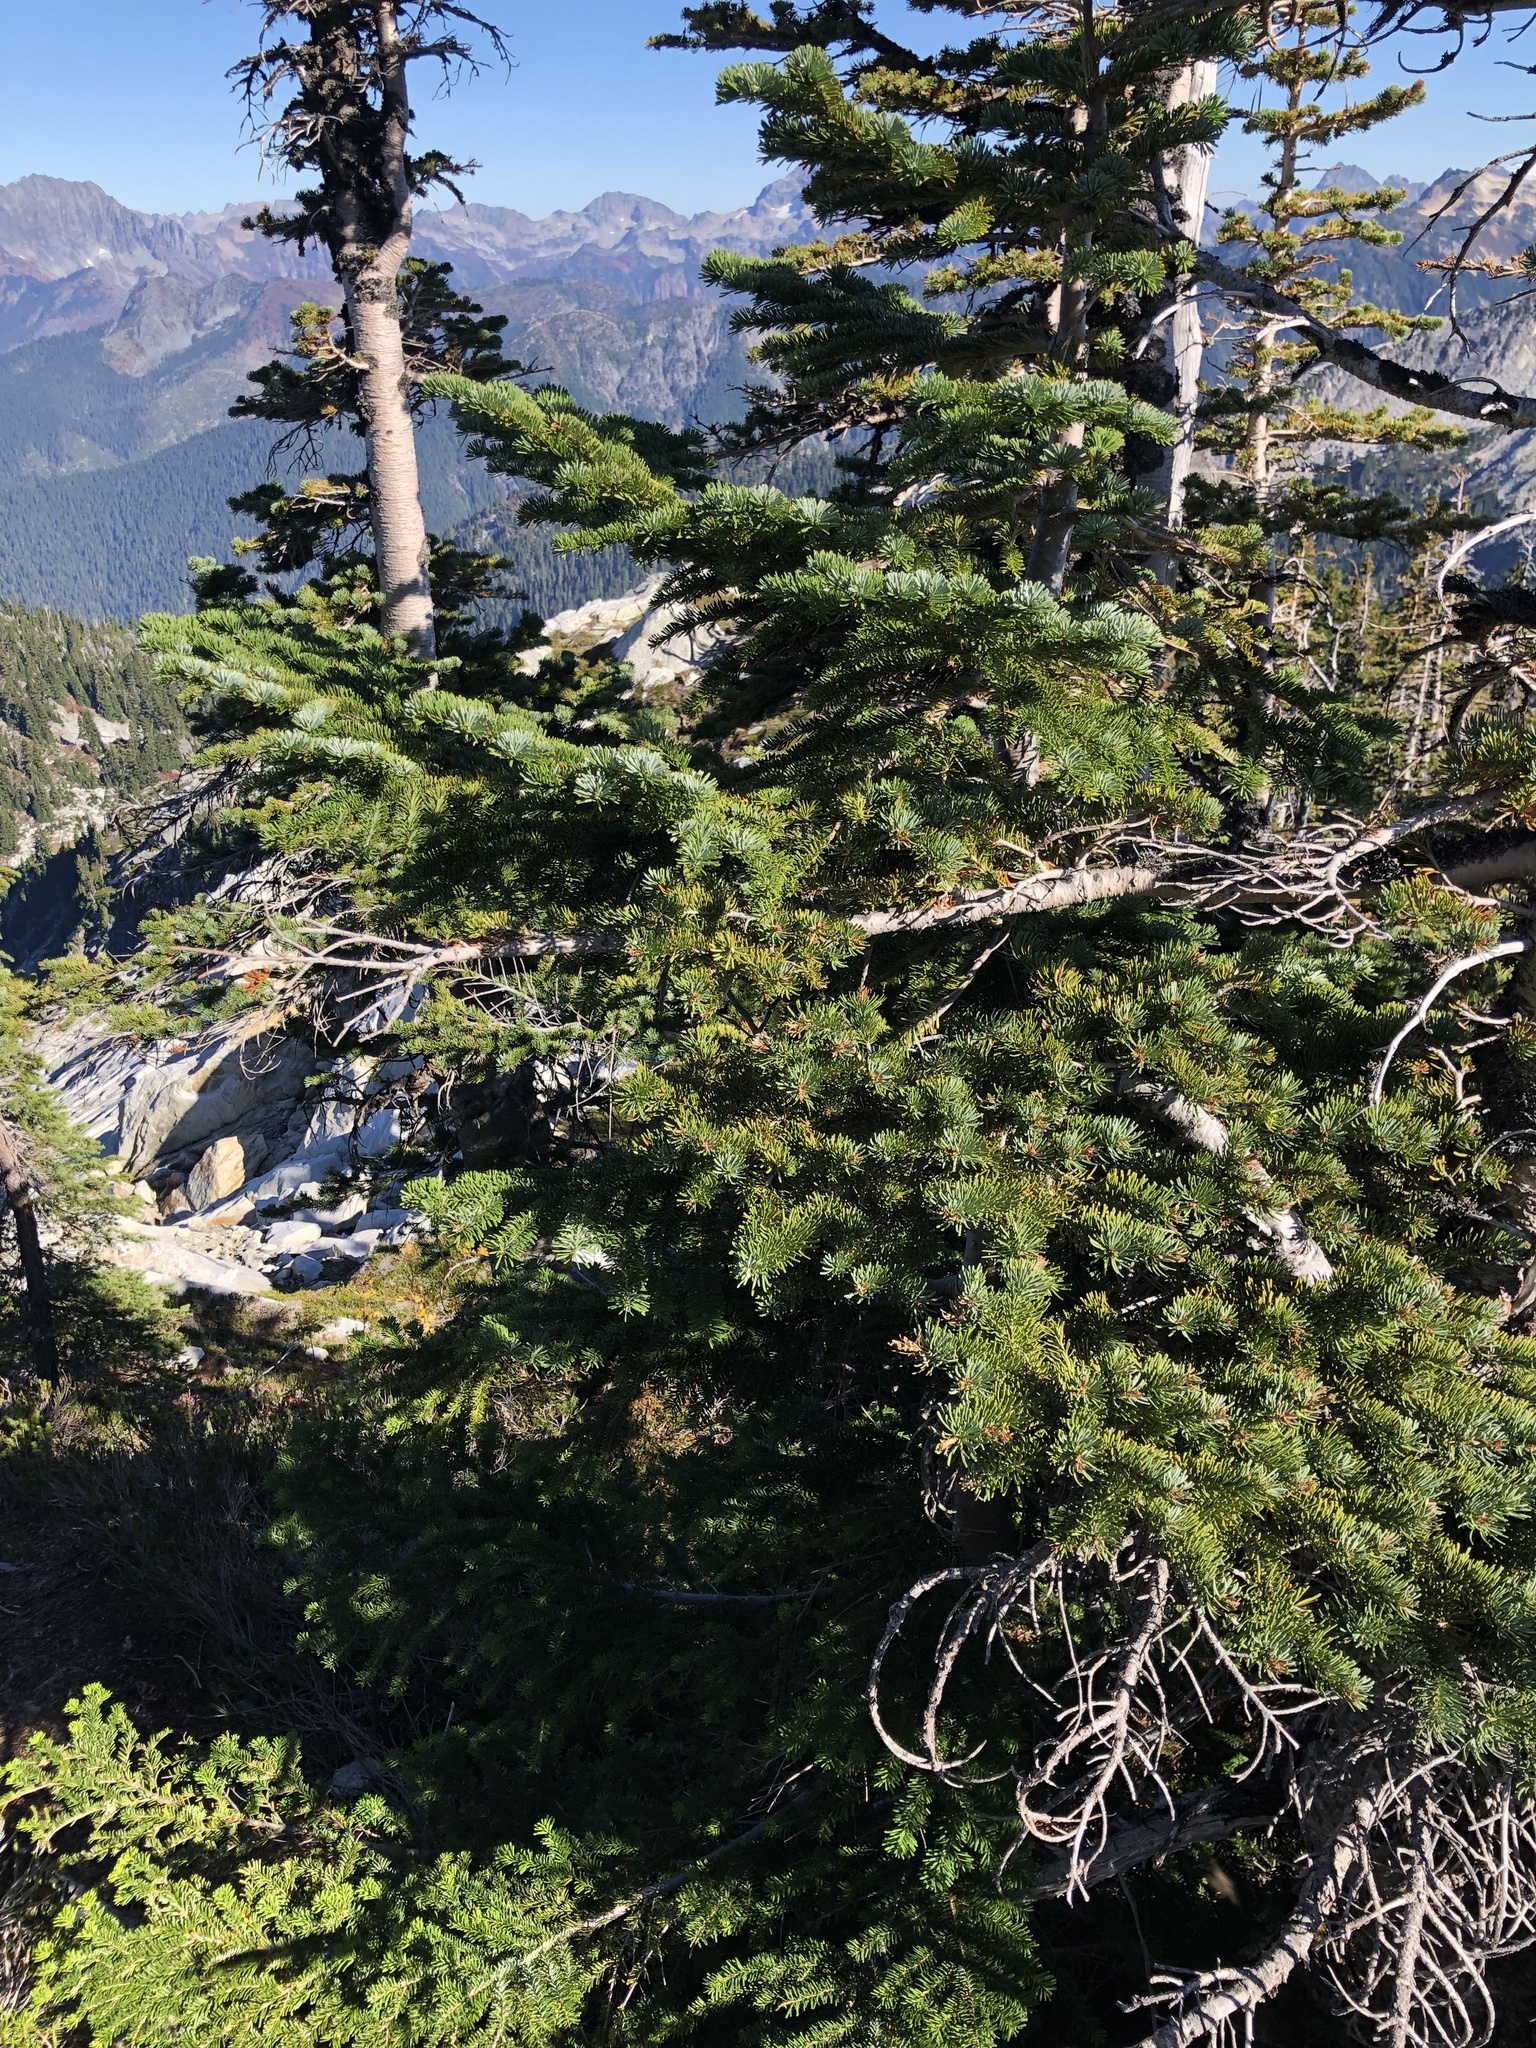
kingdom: Plantae
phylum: Tracheophyta
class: Pinopsida
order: Pinales
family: Pinaceae
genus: Abies
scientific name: Abies amabilis
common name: Pacific silver fir
